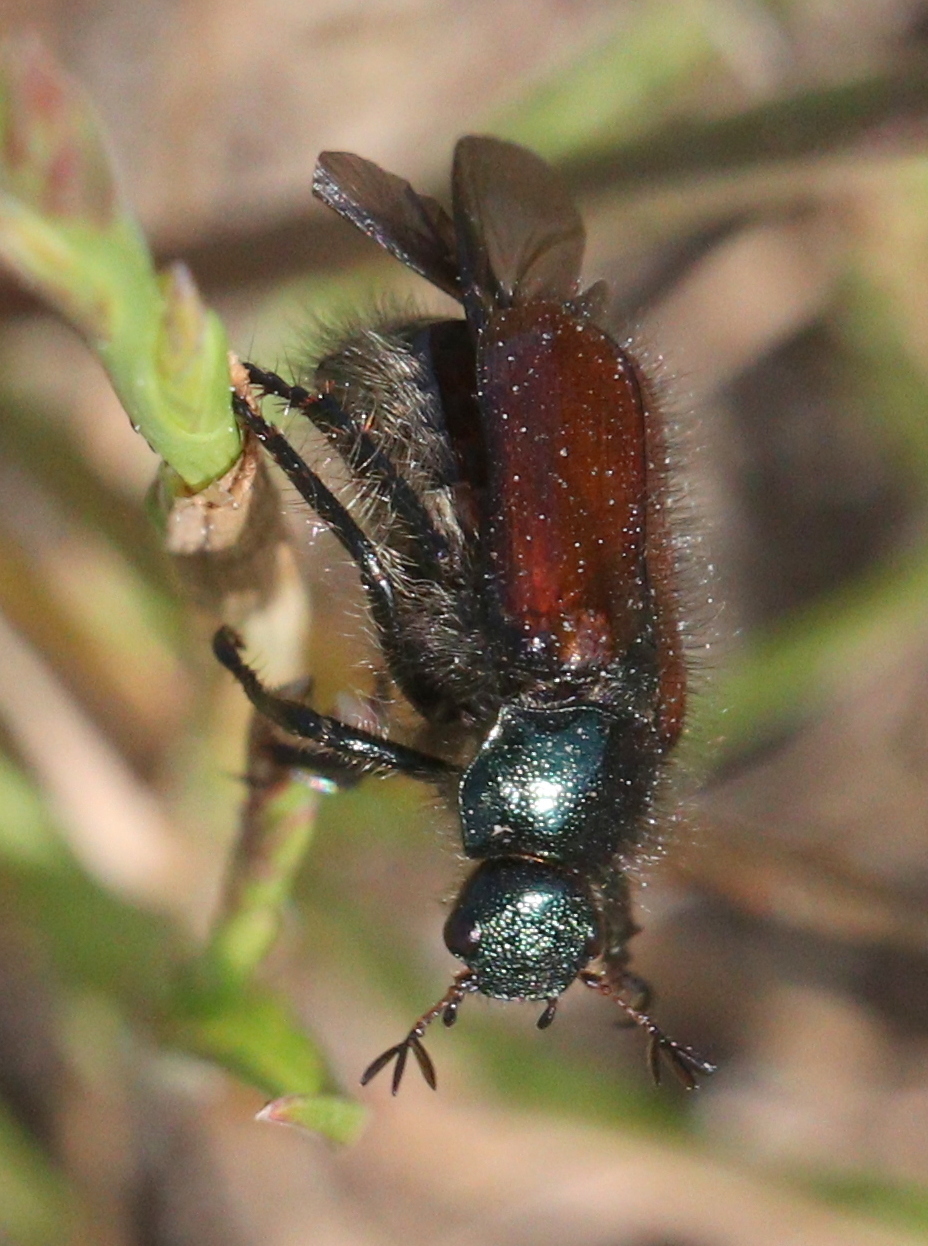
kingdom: Animalia
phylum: Arthropoda
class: Insecta
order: Coleoptera
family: Scarabaeidae
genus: Phyllopertha
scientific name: Phyllopertha horticola
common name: Garden chafer
